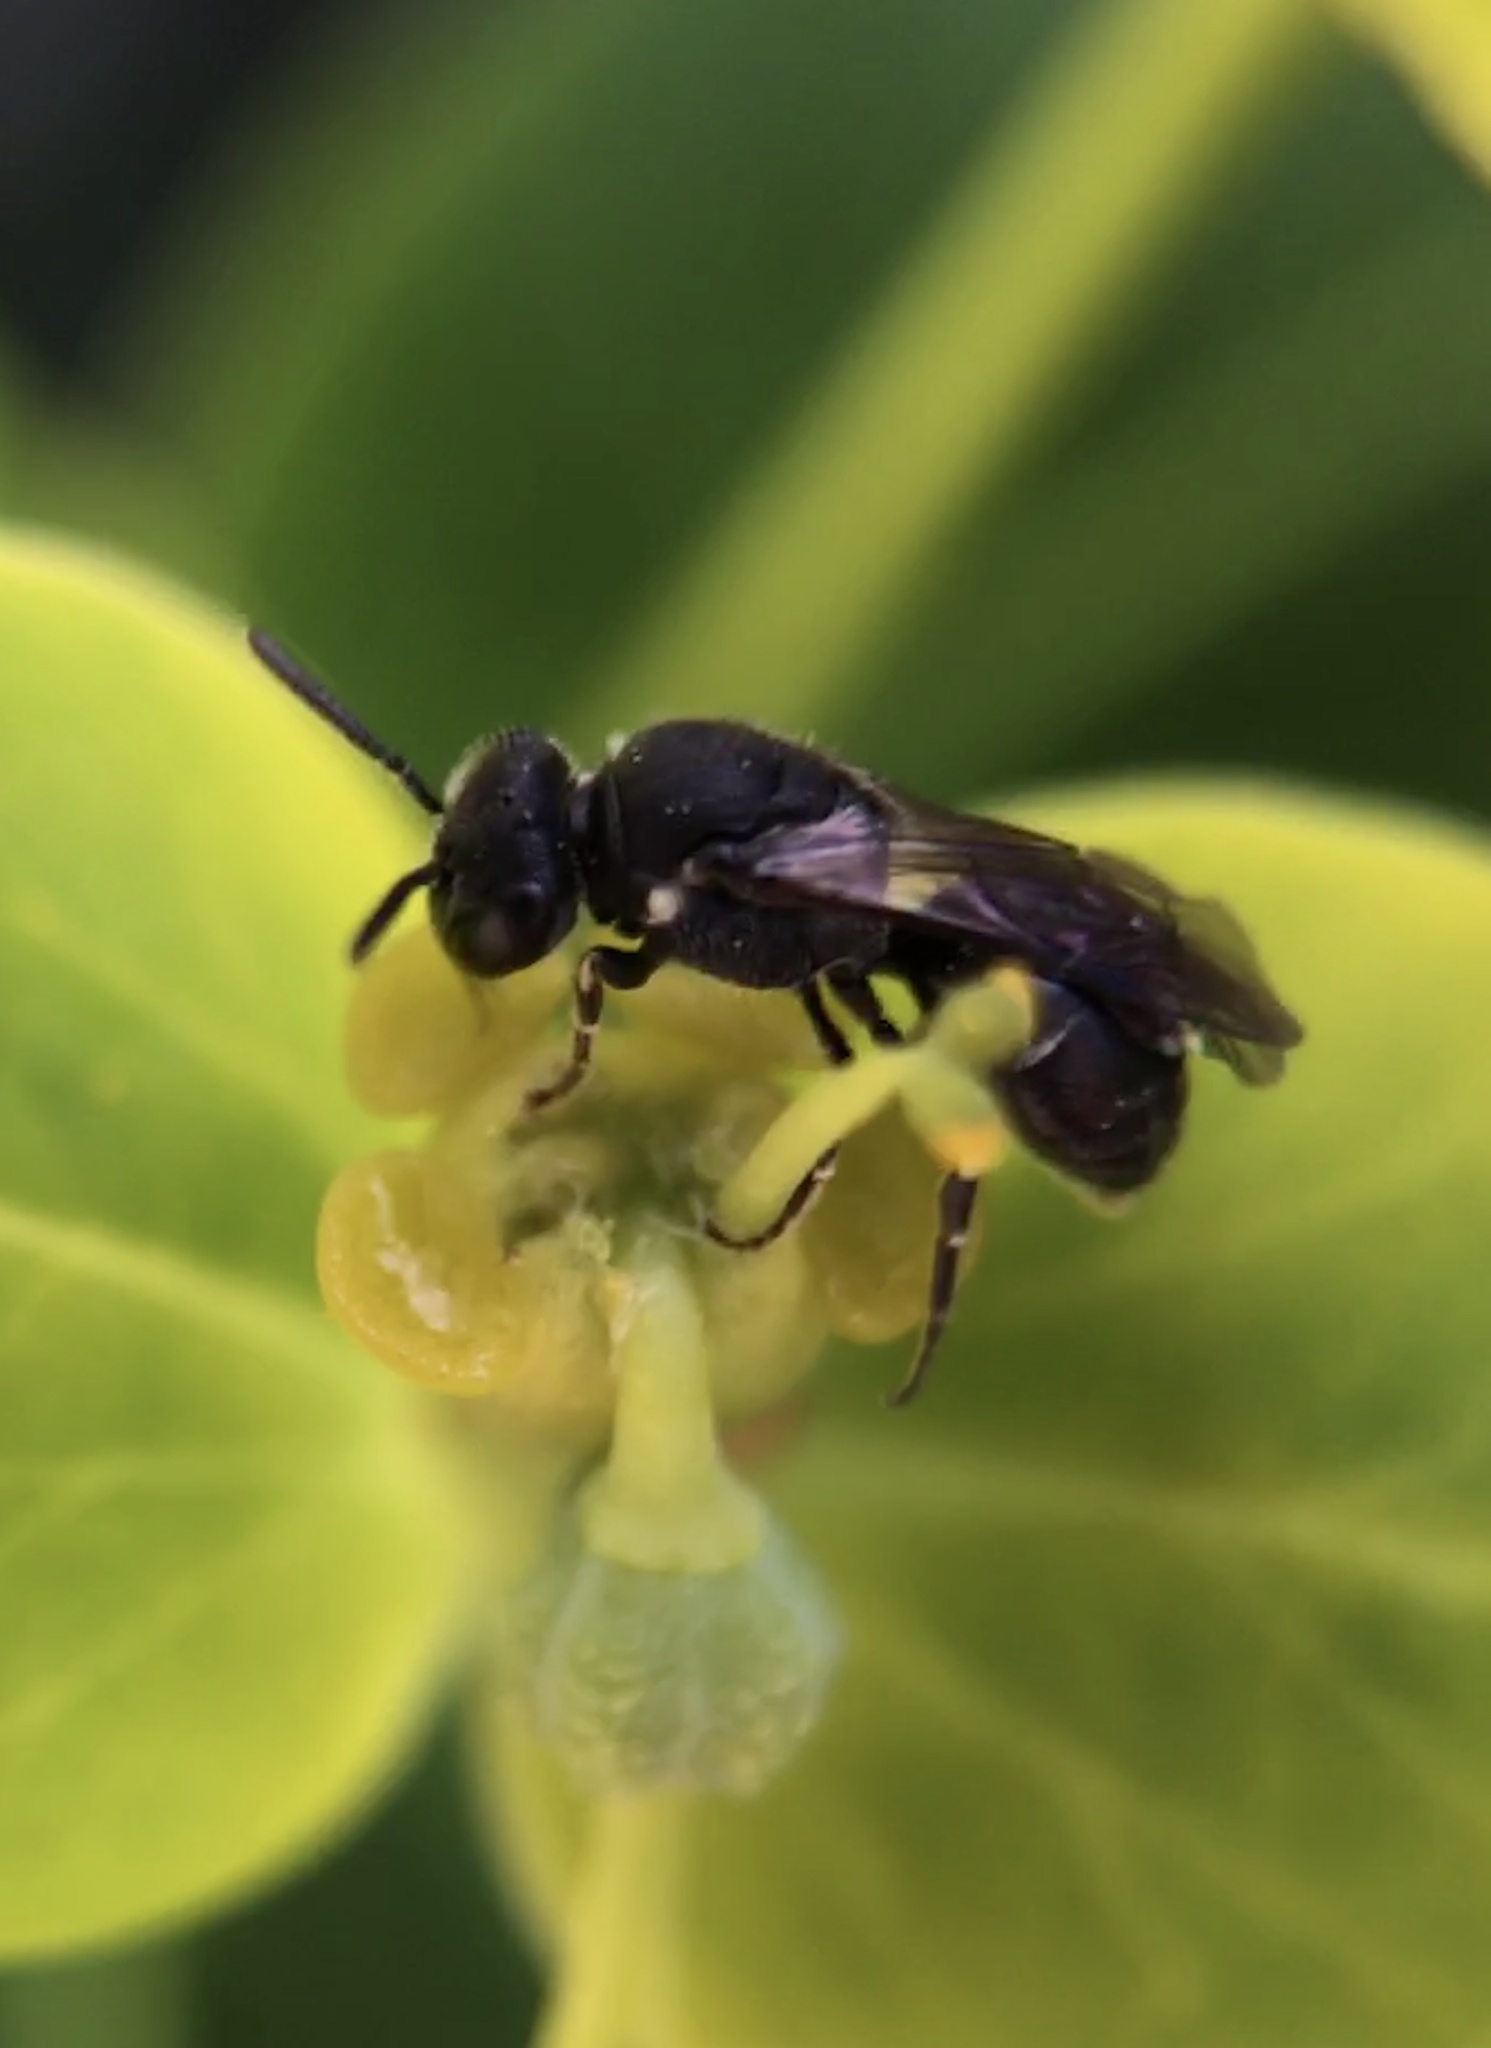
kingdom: Animalia
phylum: Arthropoda
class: Insecta
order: Hymenoptera
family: Colletidae
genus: Hylaeus
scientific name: Hylaeus
